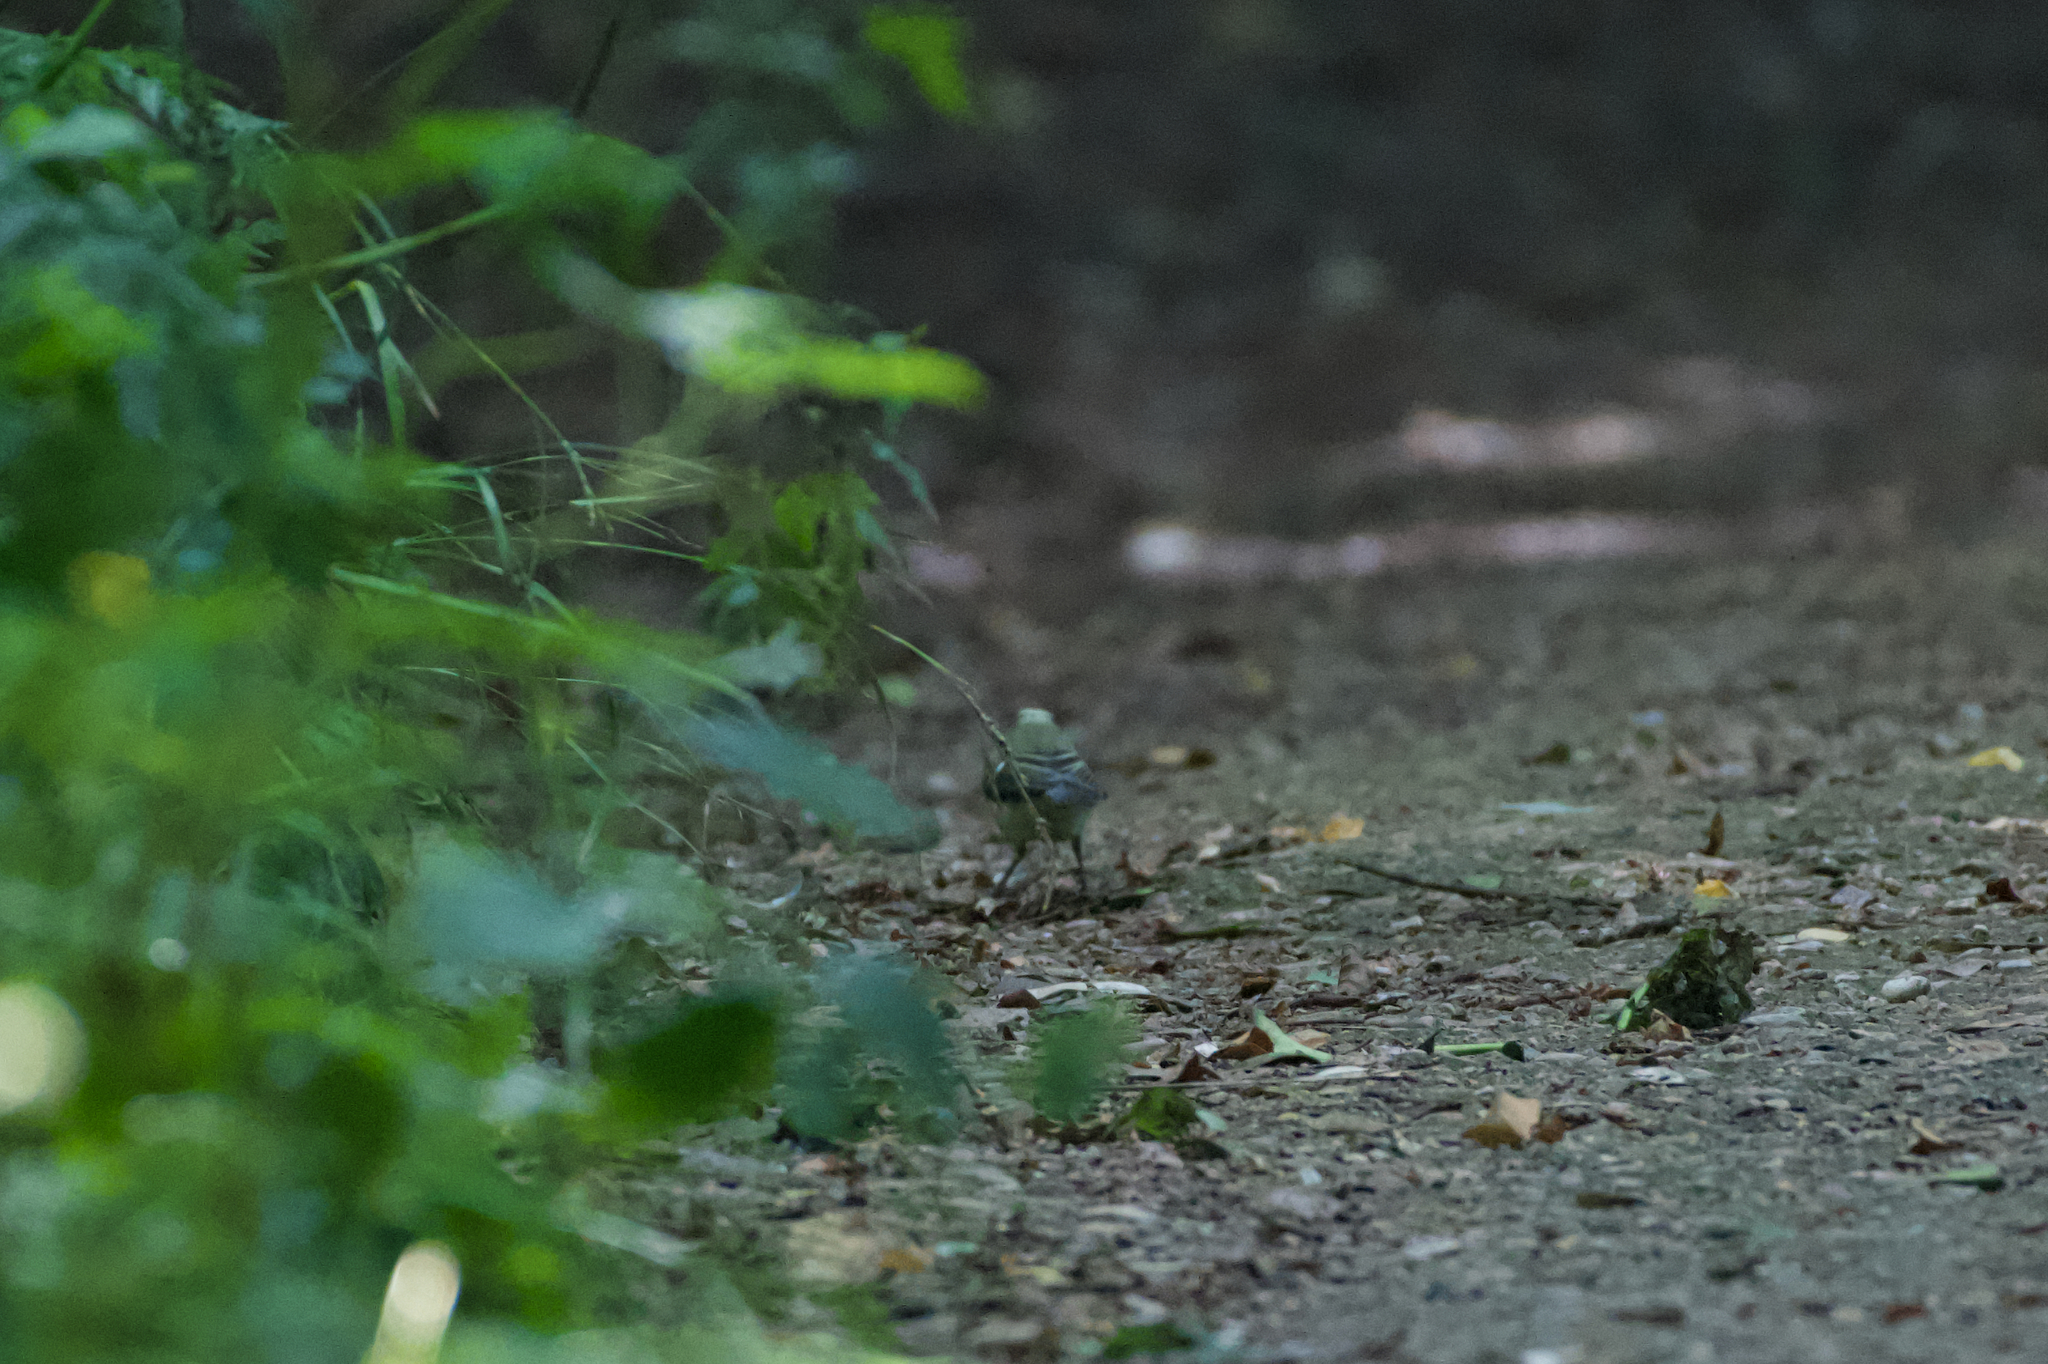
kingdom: Animalia
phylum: Chordata
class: Aves
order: Passeriformes
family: Paridae
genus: Cyanistes
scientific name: Cyanistes caeruleus
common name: Eurasian blue tit
